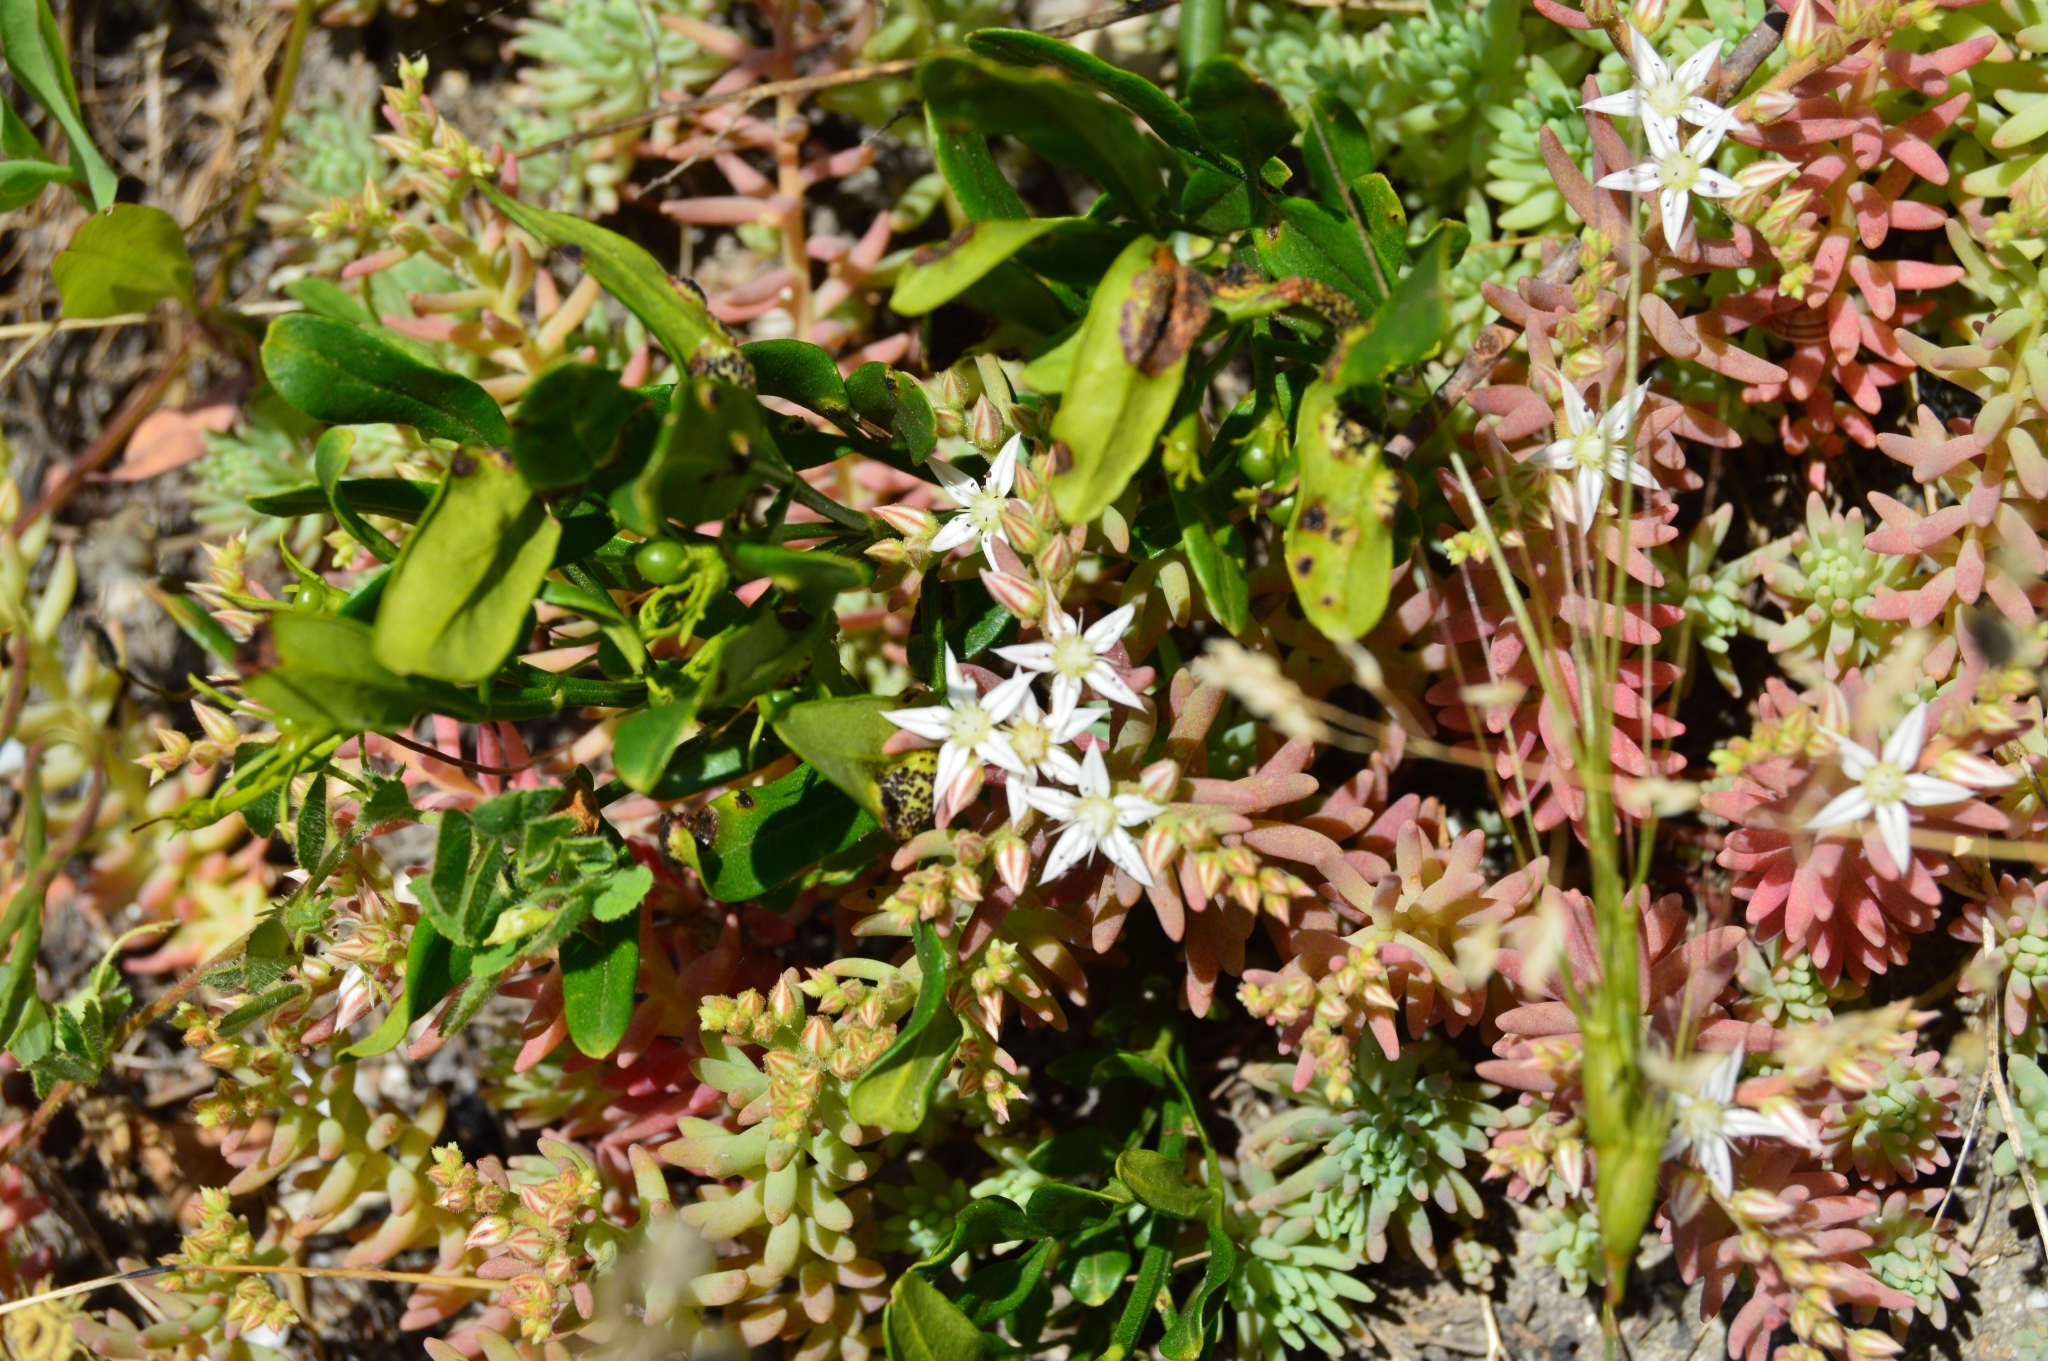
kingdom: Plantae
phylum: Tracheophyta
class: Magnoliopsida
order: Saxifragales
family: Crassulaceae
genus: Sedum
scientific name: Sedum pallidum
